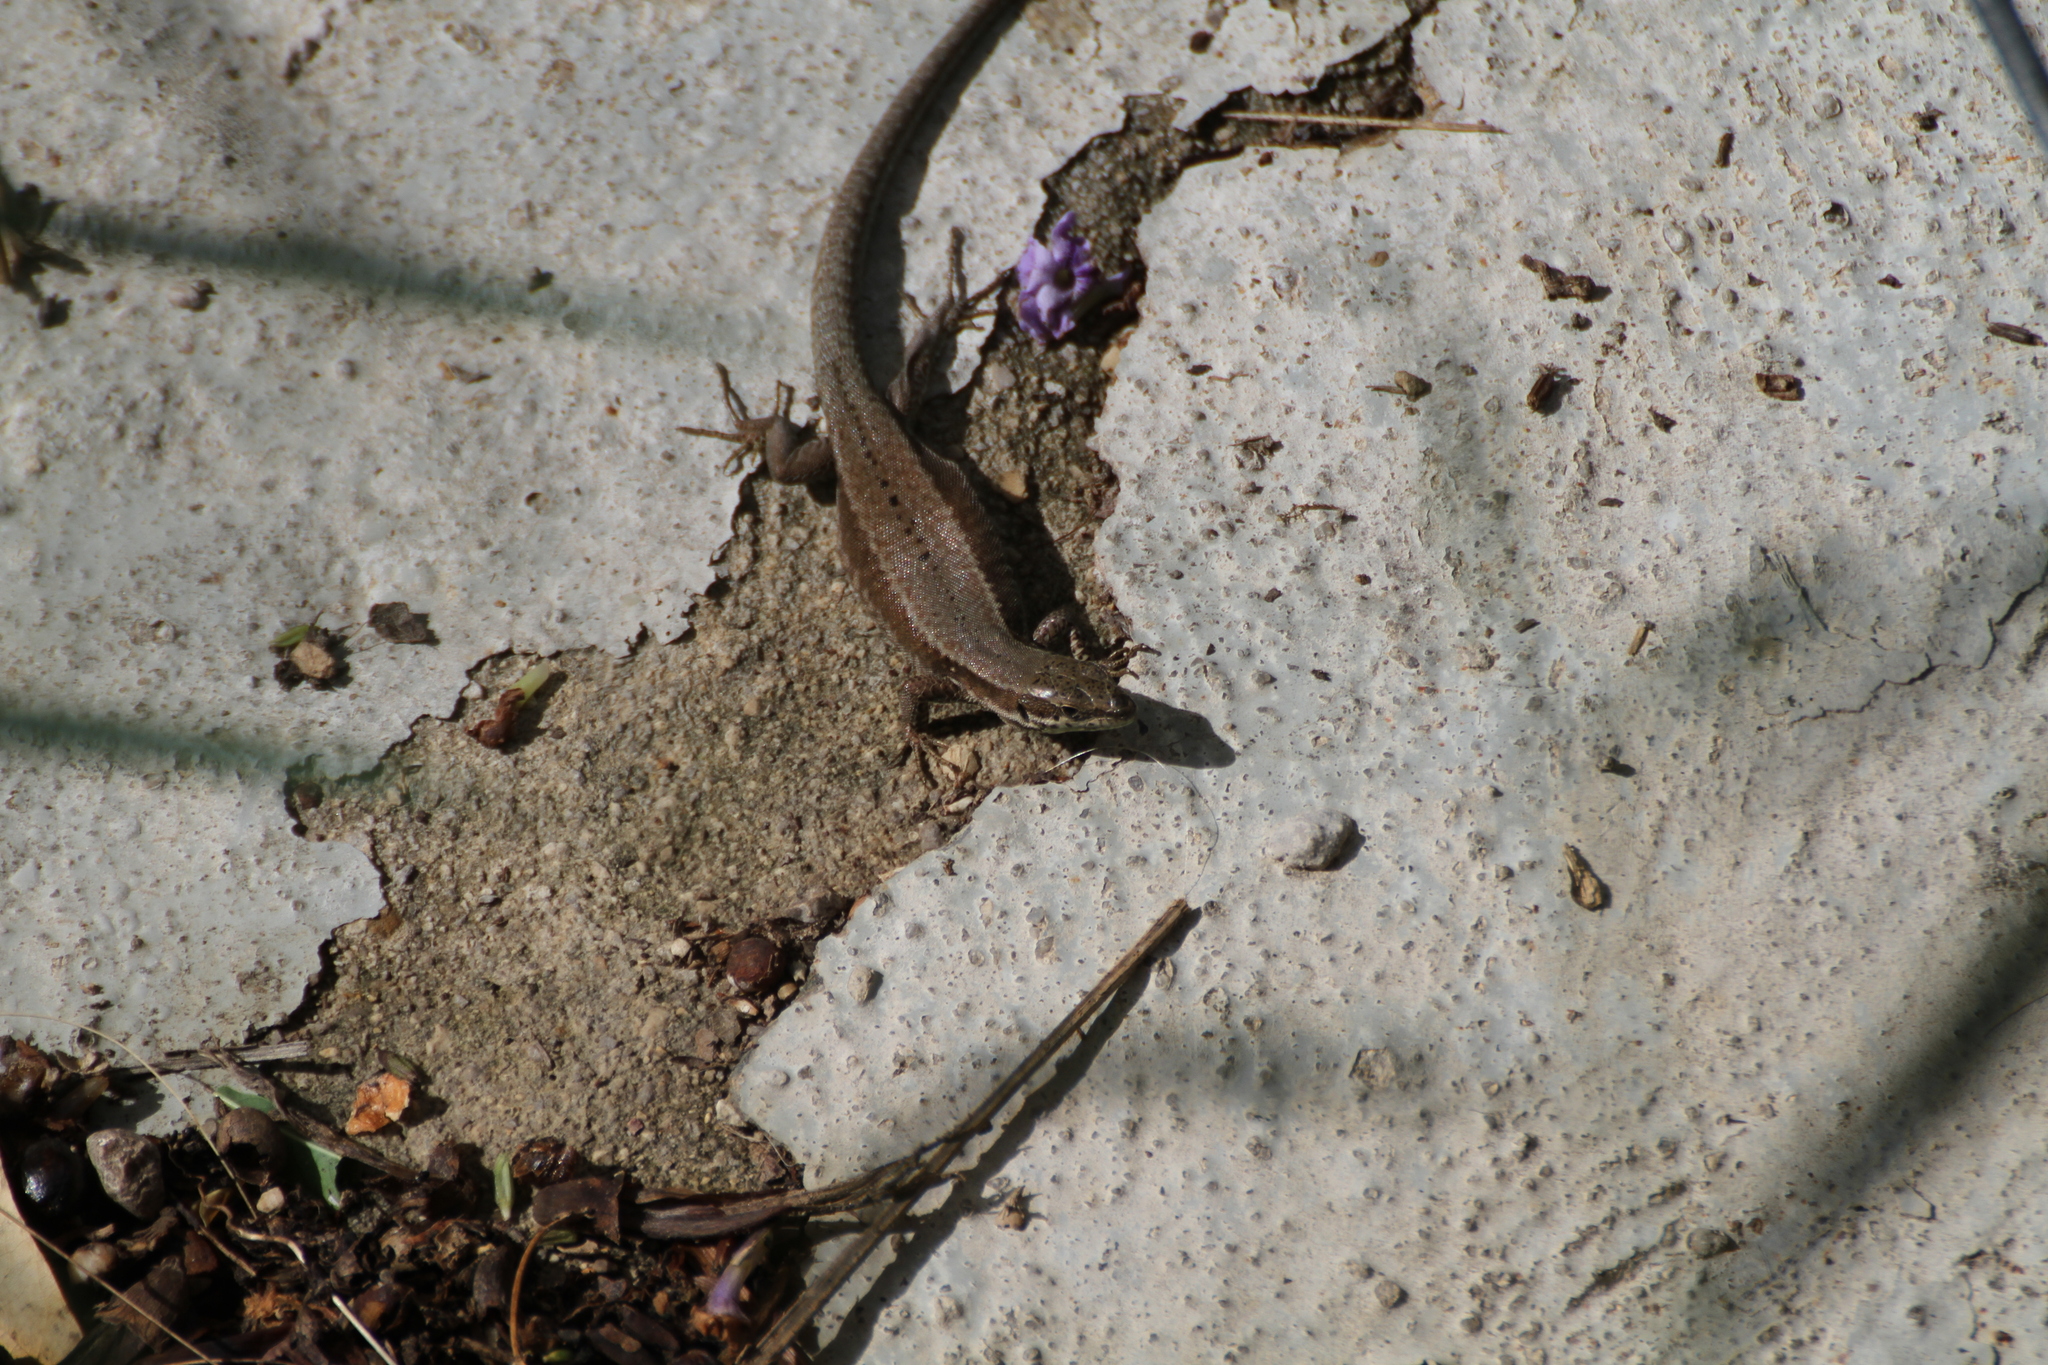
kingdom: Animalia
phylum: Chordata
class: Squamata
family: Lacertidae
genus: Podarcis
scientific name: Podarcis muralis
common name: Common wall lizard
